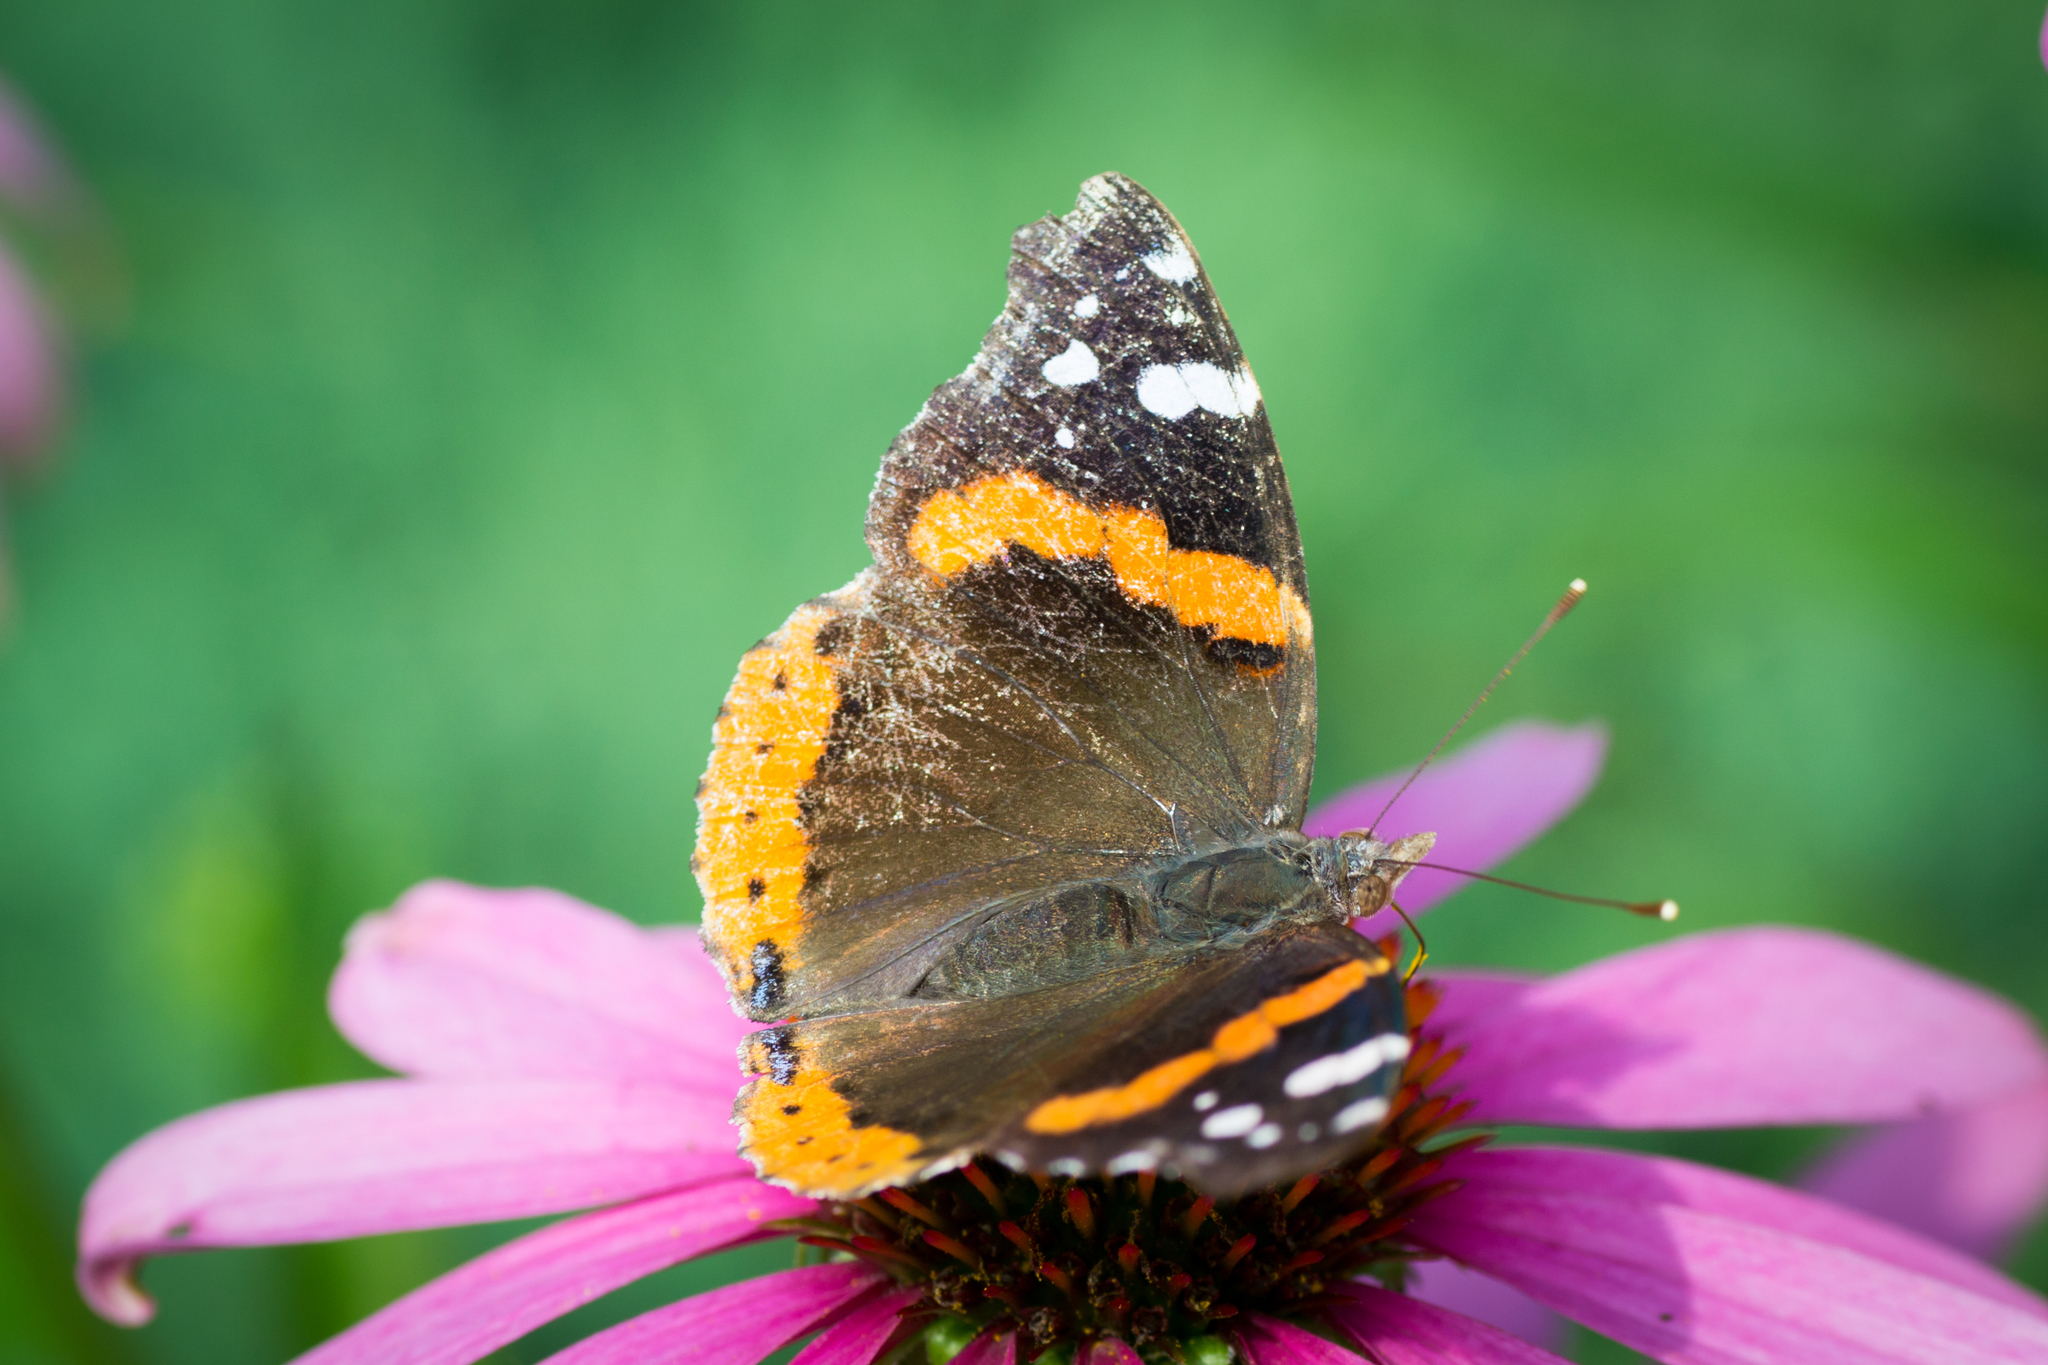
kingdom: Animalia
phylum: Arthropoda
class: Insecta
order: Lepidoptera
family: Nymphalidae
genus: Vanessa
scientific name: Vanessa atalanta
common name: Red admiral
